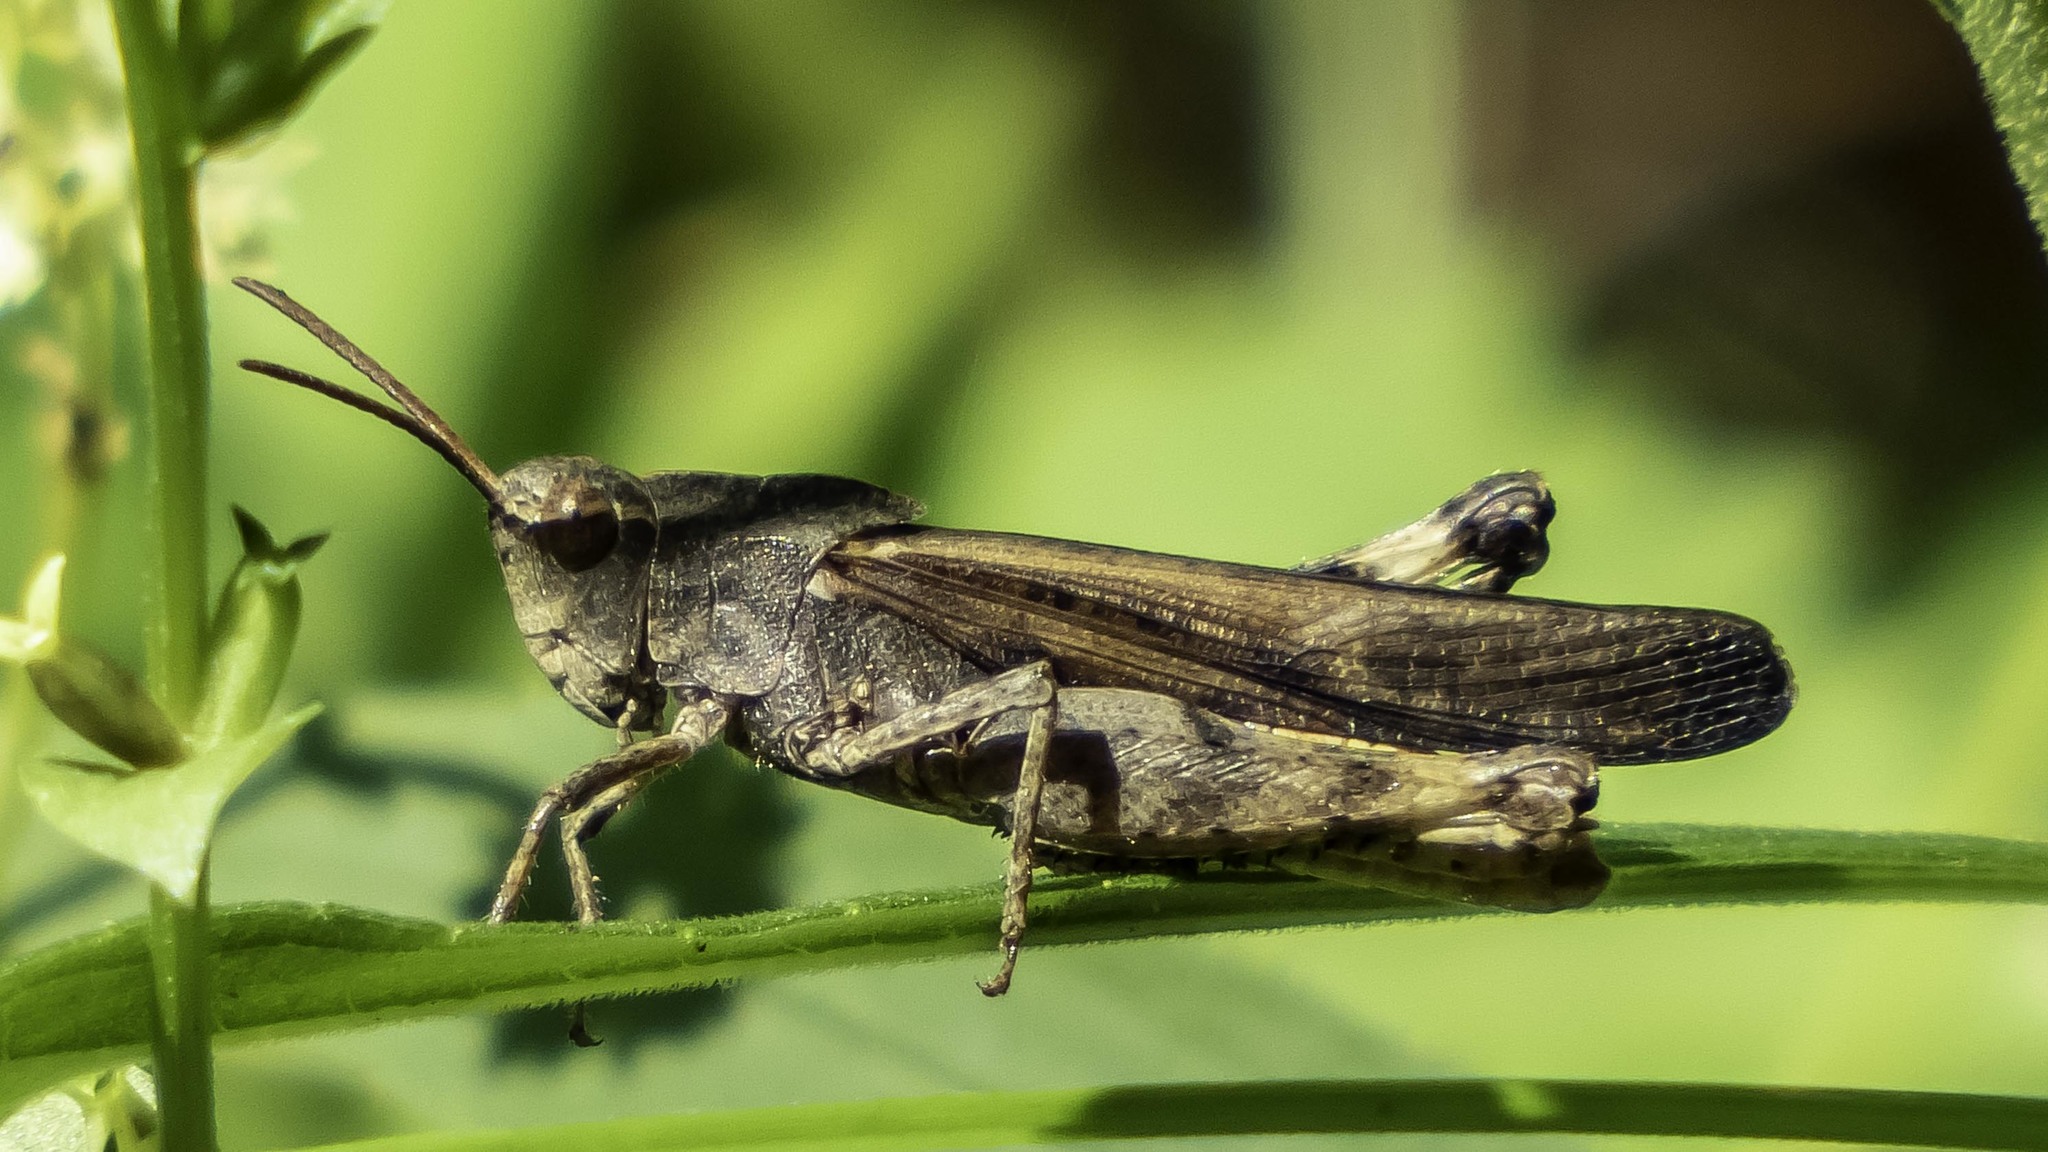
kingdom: Animalia
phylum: Arthropoda
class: Insecta
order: Orthoptera
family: Acrididae
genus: Chortophaga
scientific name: Chortophaga viridifasciata
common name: Green-striped grasshopper
